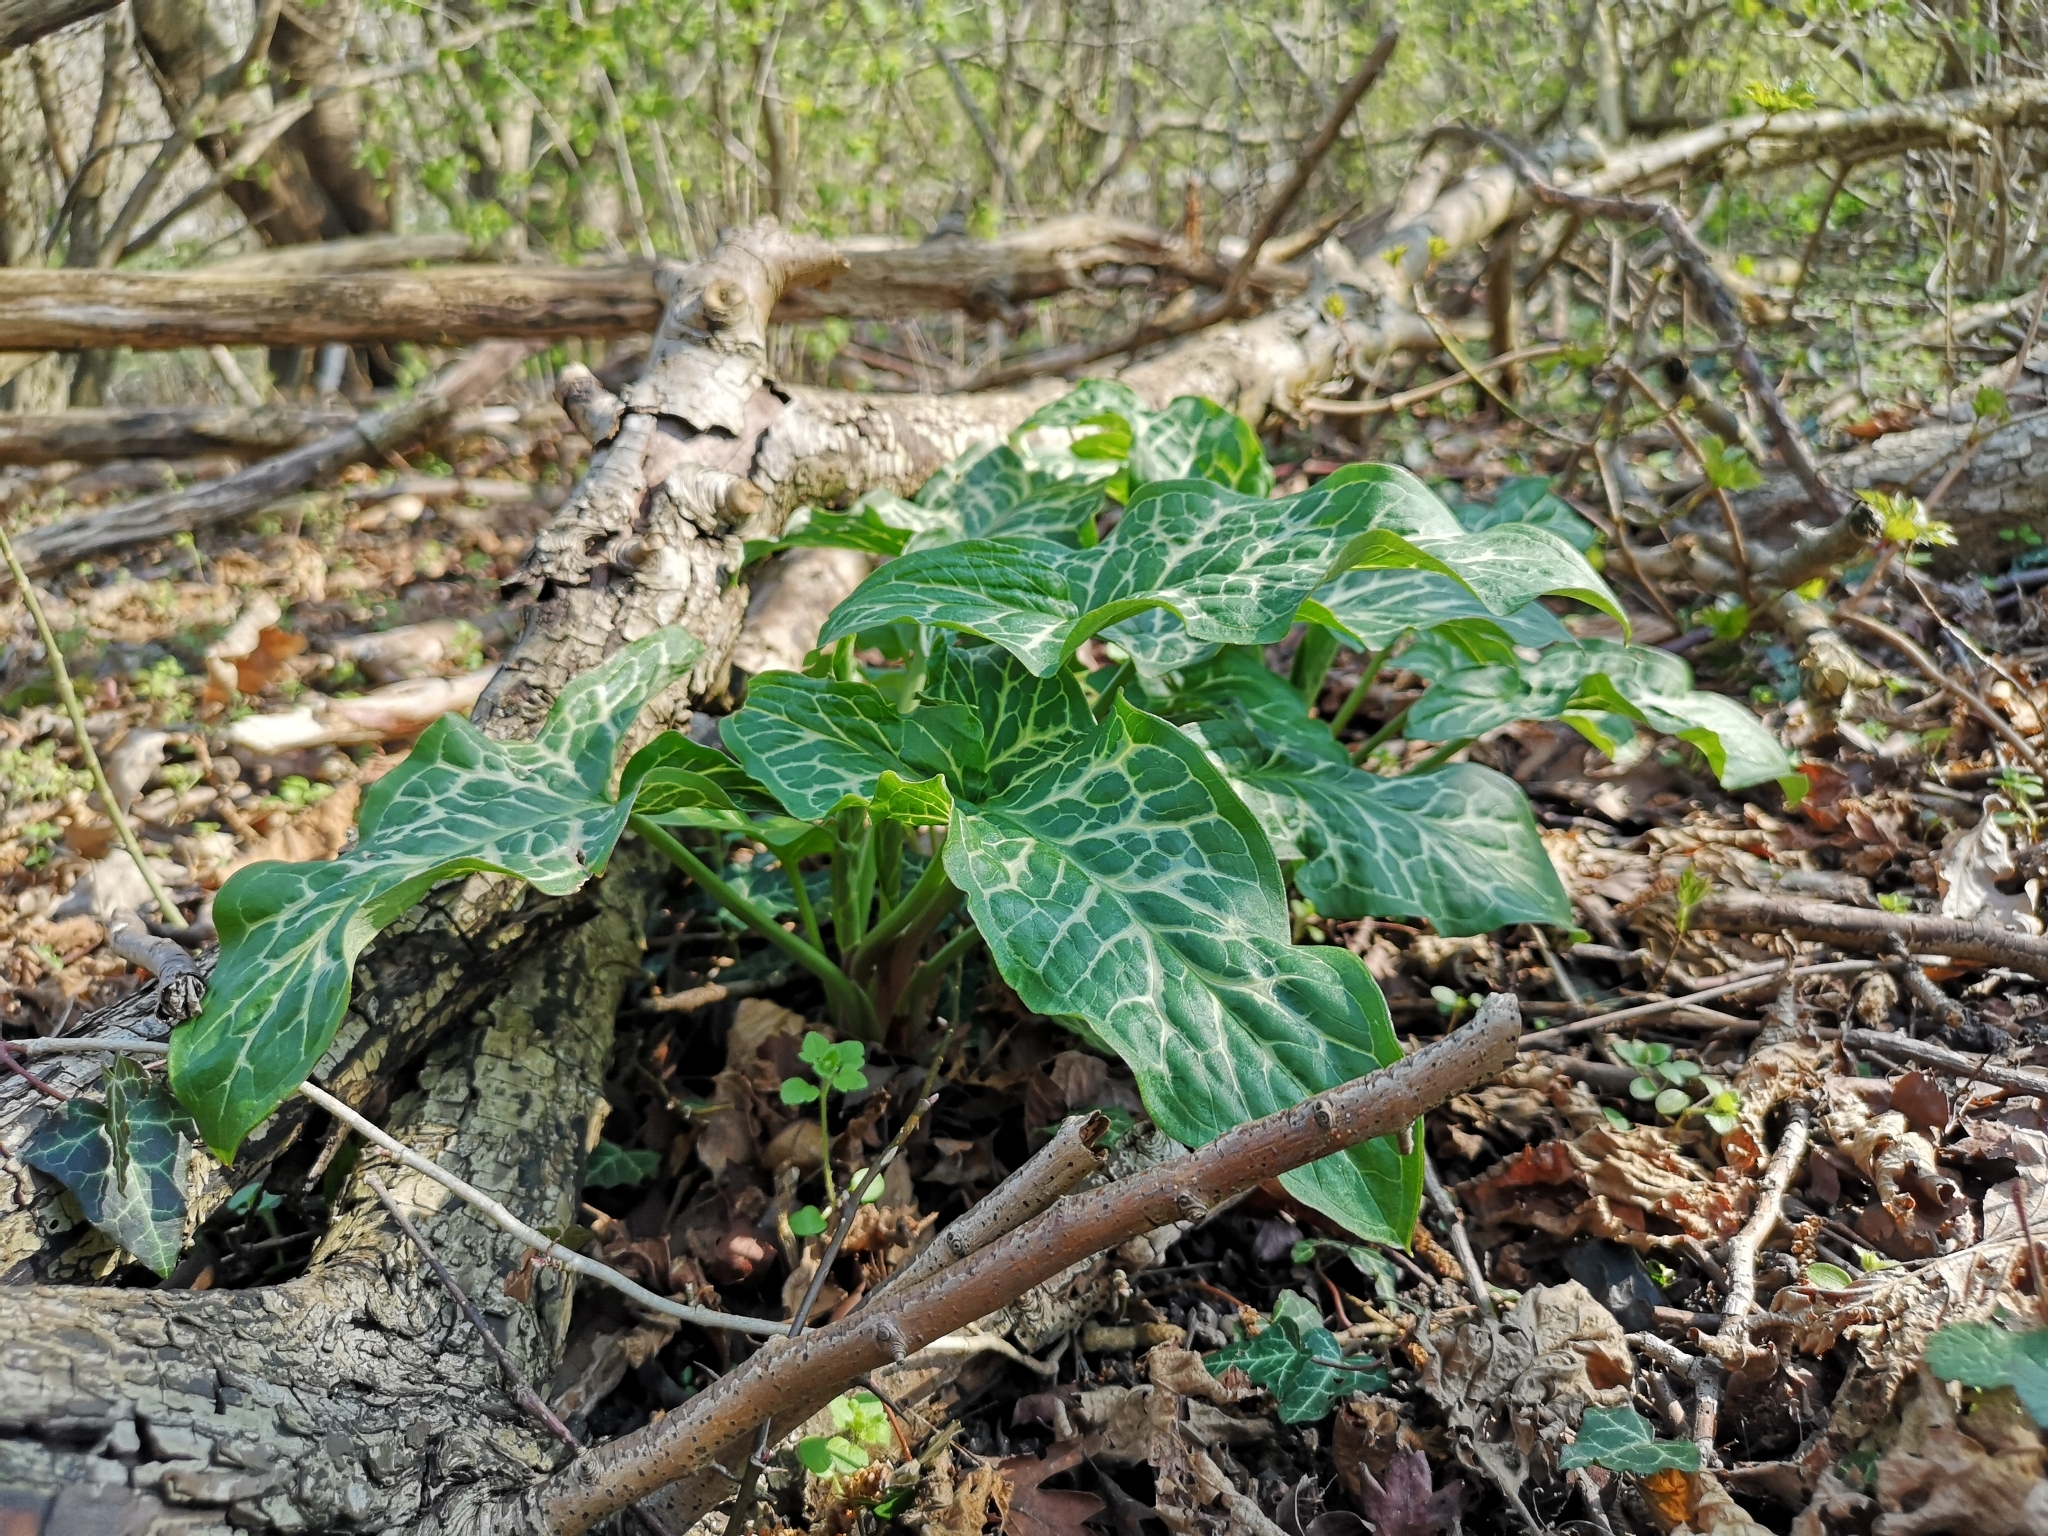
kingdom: Plantae
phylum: Tracheophyta
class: Liliopsida
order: Alismatales
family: Araceae
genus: Arum
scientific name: Arum italicum
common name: Italian lords-and-ladies
